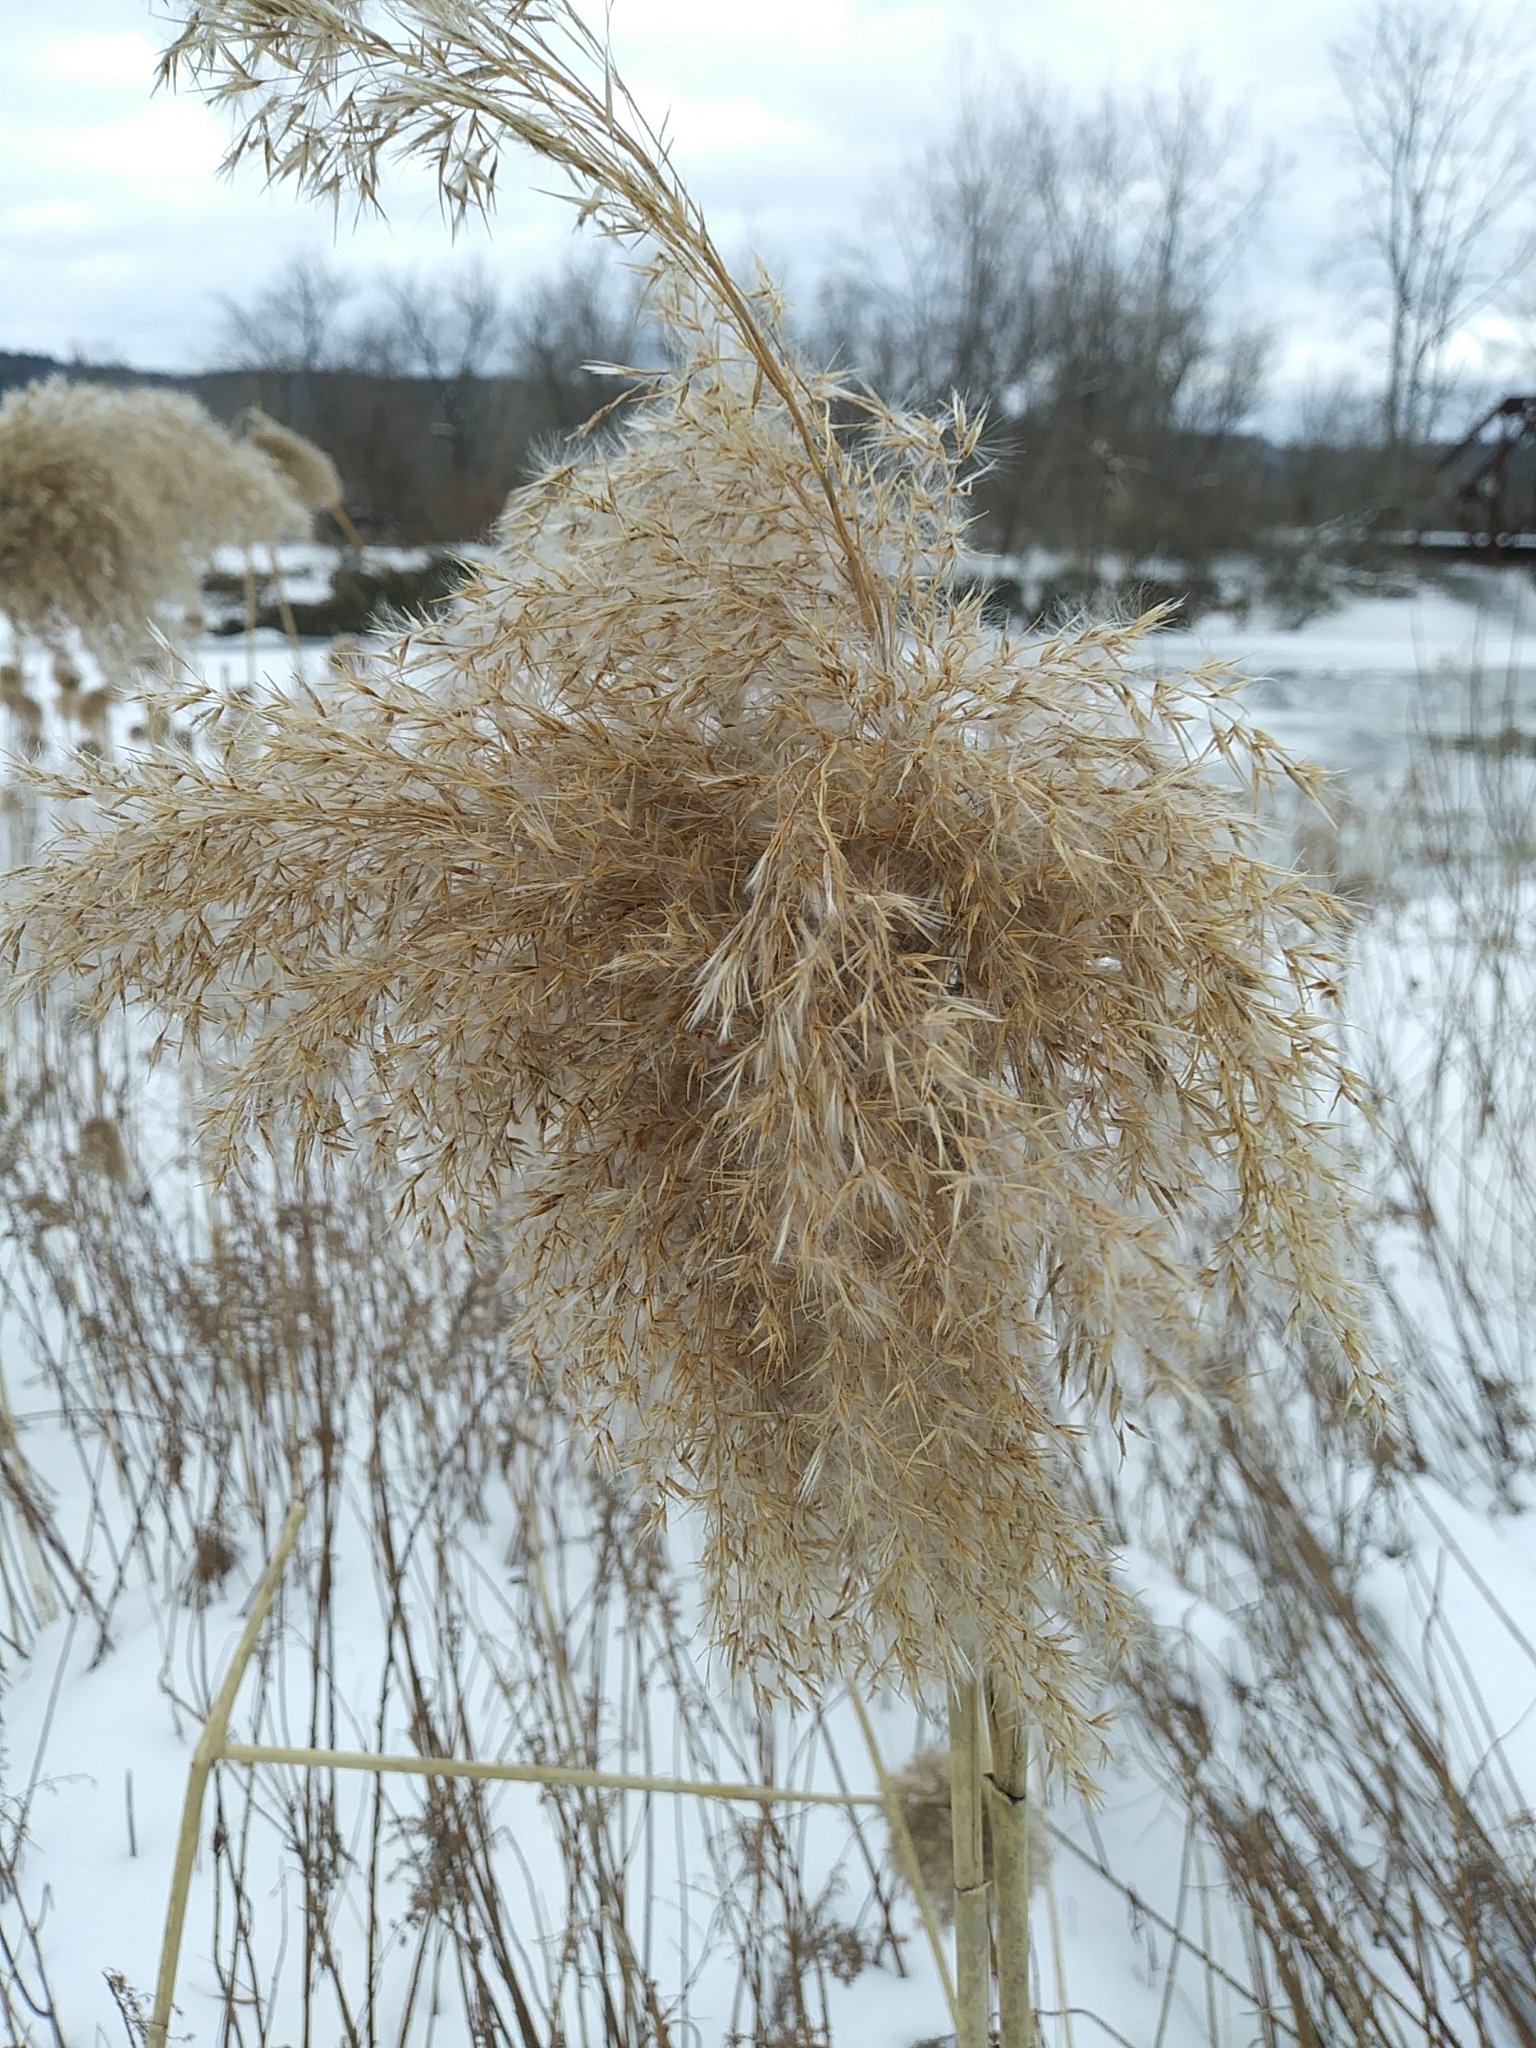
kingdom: Plantae
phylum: Tracheophyta
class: Liliopsida
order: Poales
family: Poaceae
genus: Phragmites
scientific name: Phragmites australis
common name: Common reed
